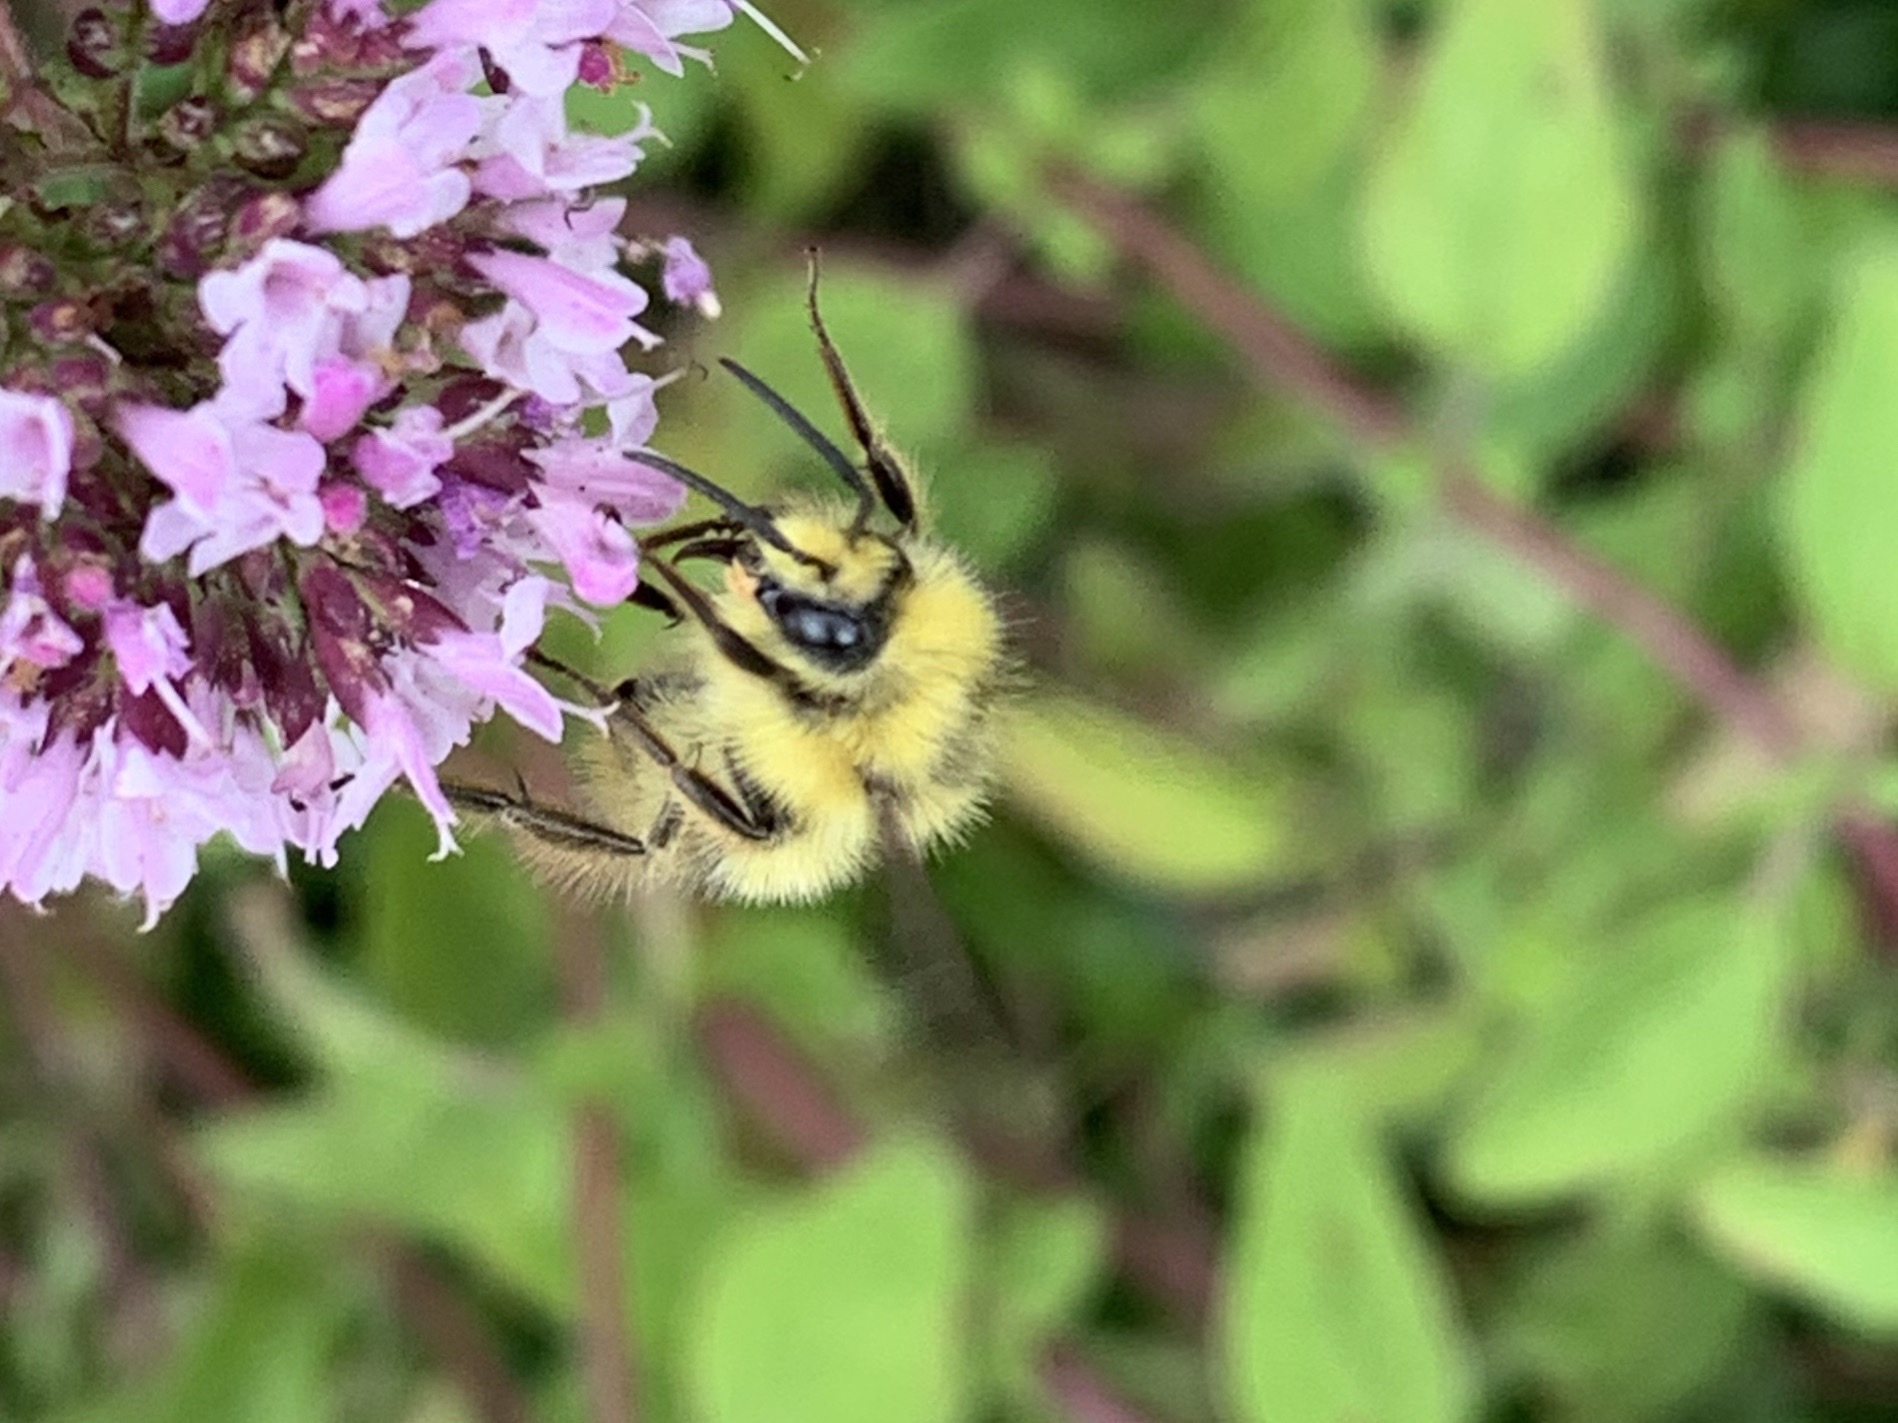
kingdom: Animalia
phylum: Arthropoda
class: Insecta
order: Hymenoptera
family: Apidae
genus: Bombus
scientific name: Bombus mixtus
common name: Fuzzy-horned bumble bee
